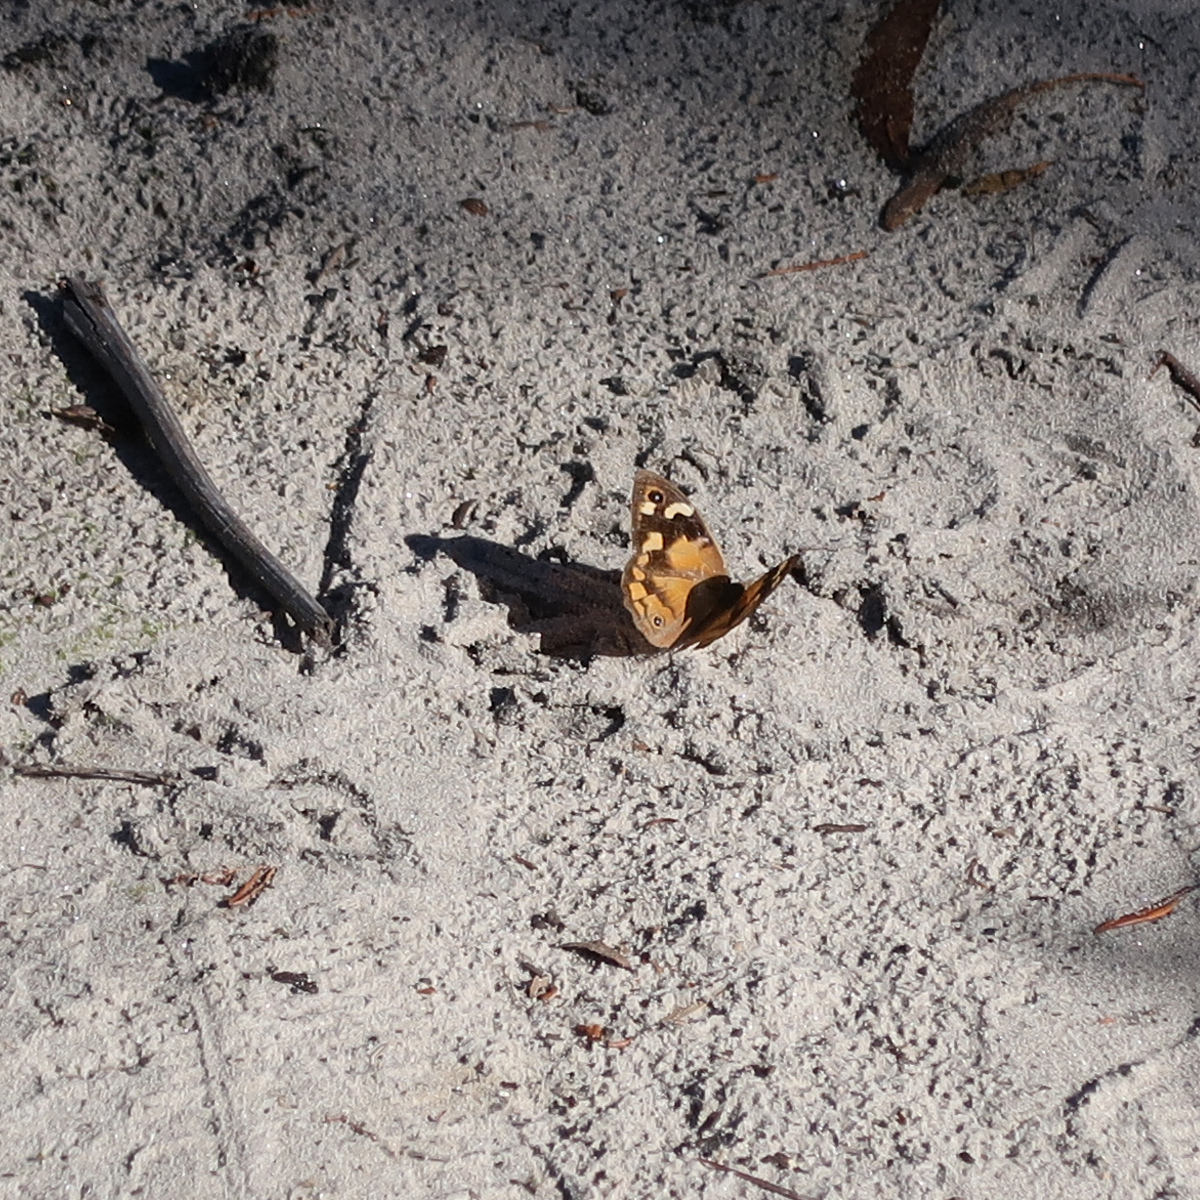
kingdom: Animalia
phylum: Arthropoda
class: Insecta
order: Lepidoptera
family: Nymphalidae
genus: Heteronympha
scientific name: Heteronympha merope
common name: Common brown
